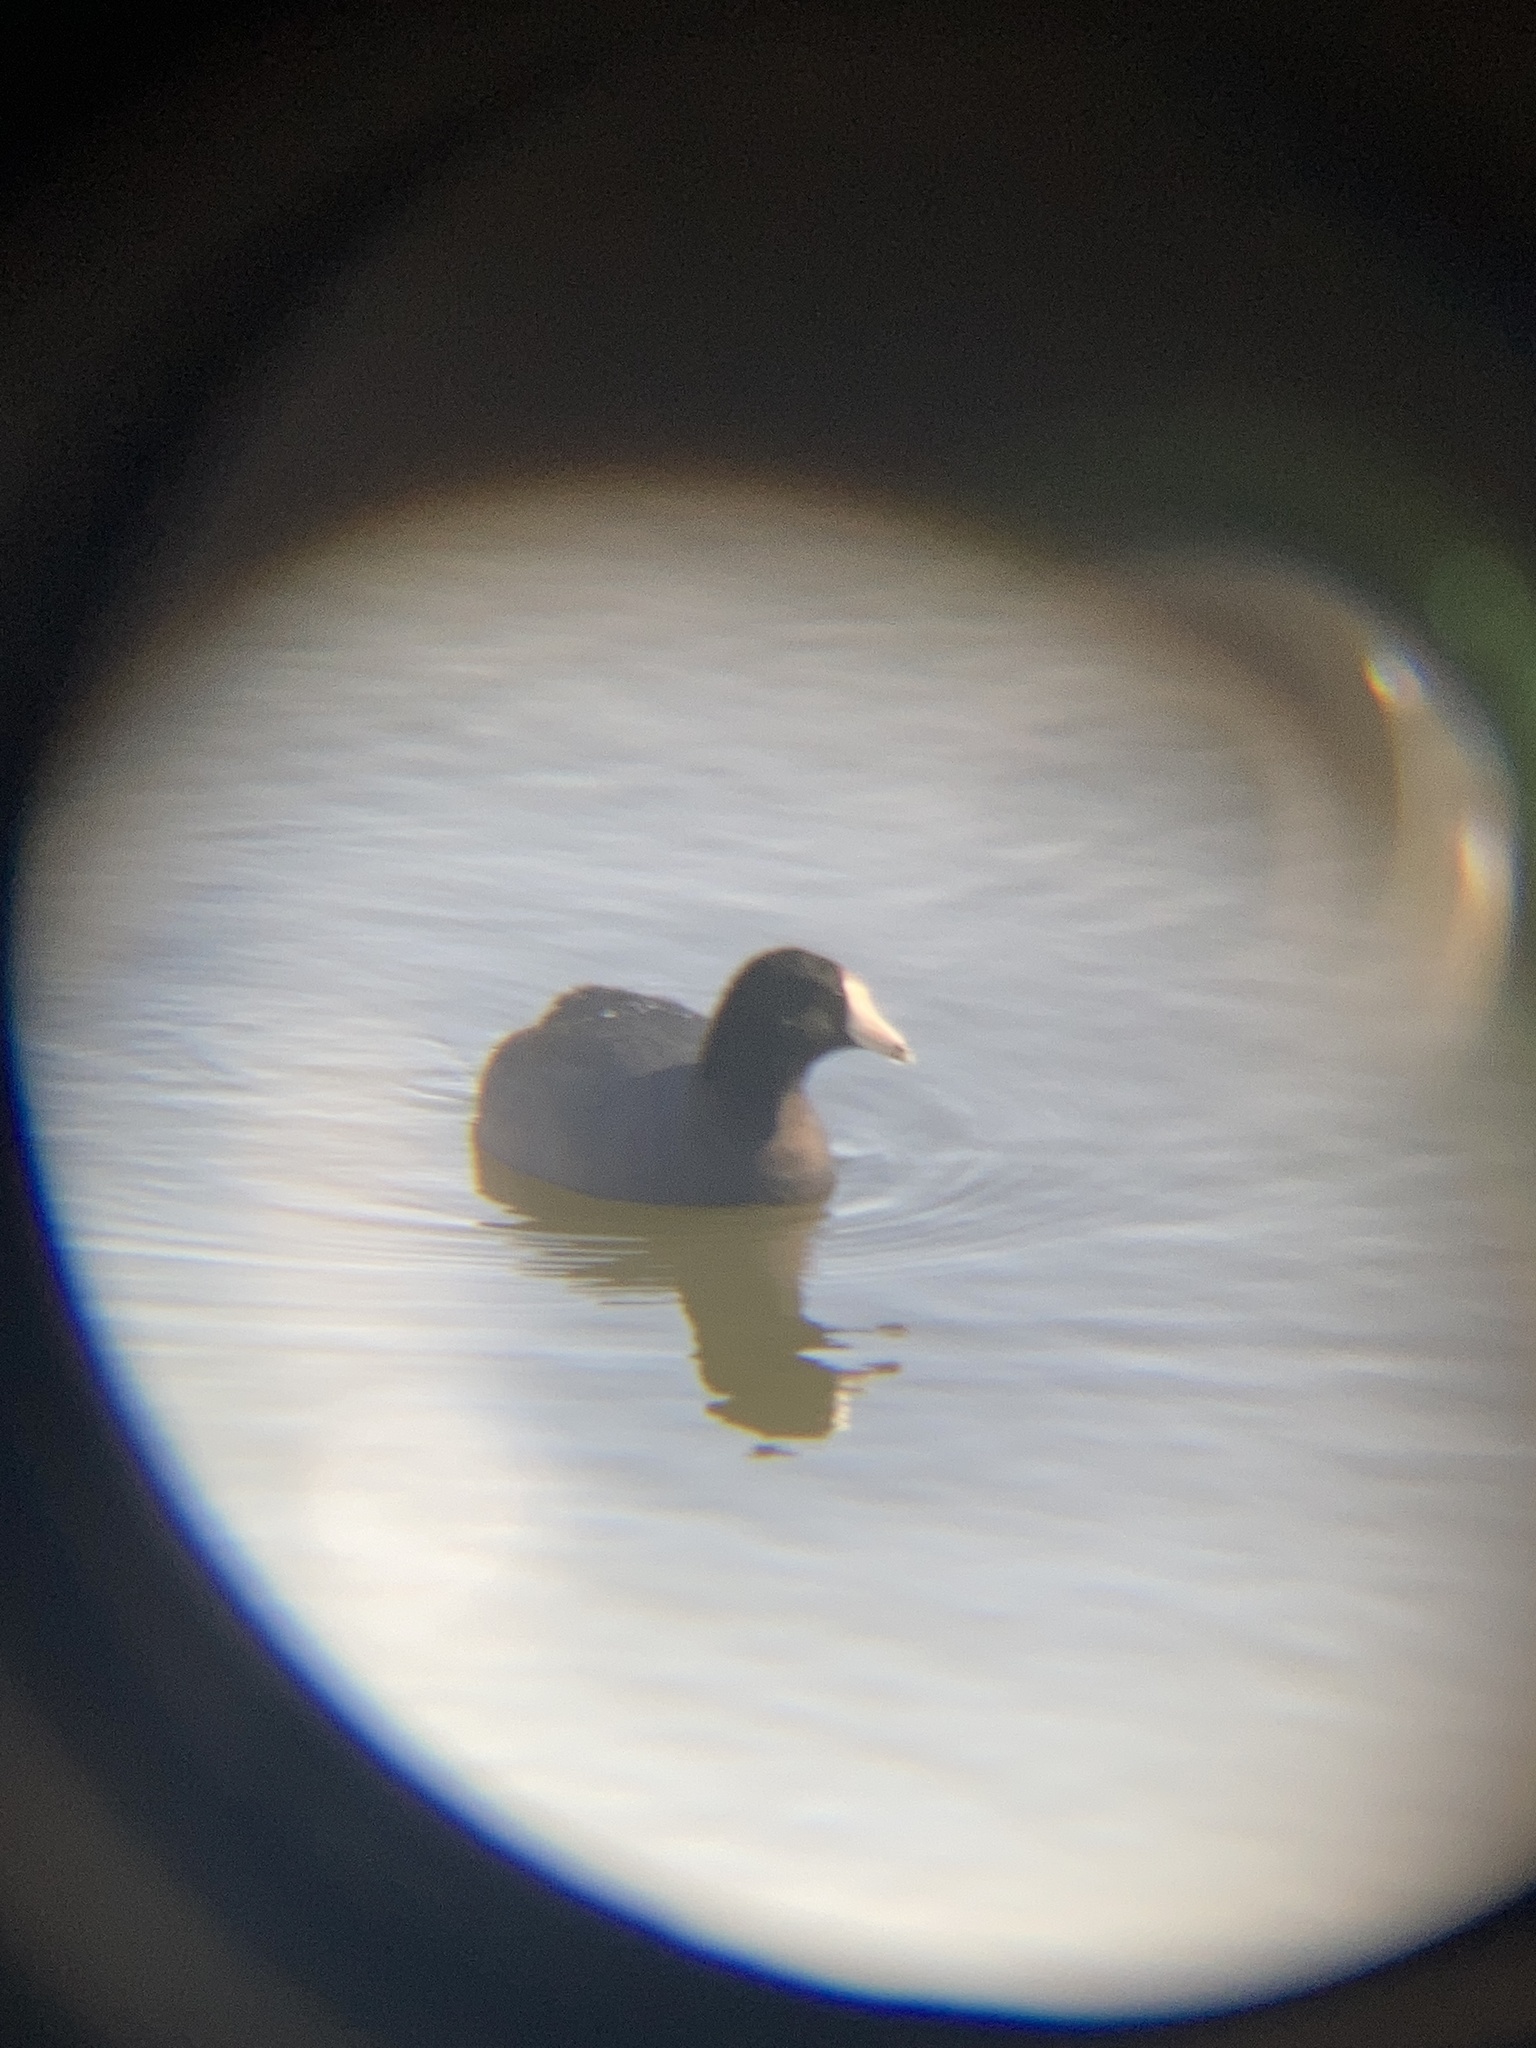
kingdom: Animalia
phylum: Chordata
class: Aves
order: Gruiformes
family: Rallidae
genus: Fulica
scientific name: Fulica americana
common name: American coot
